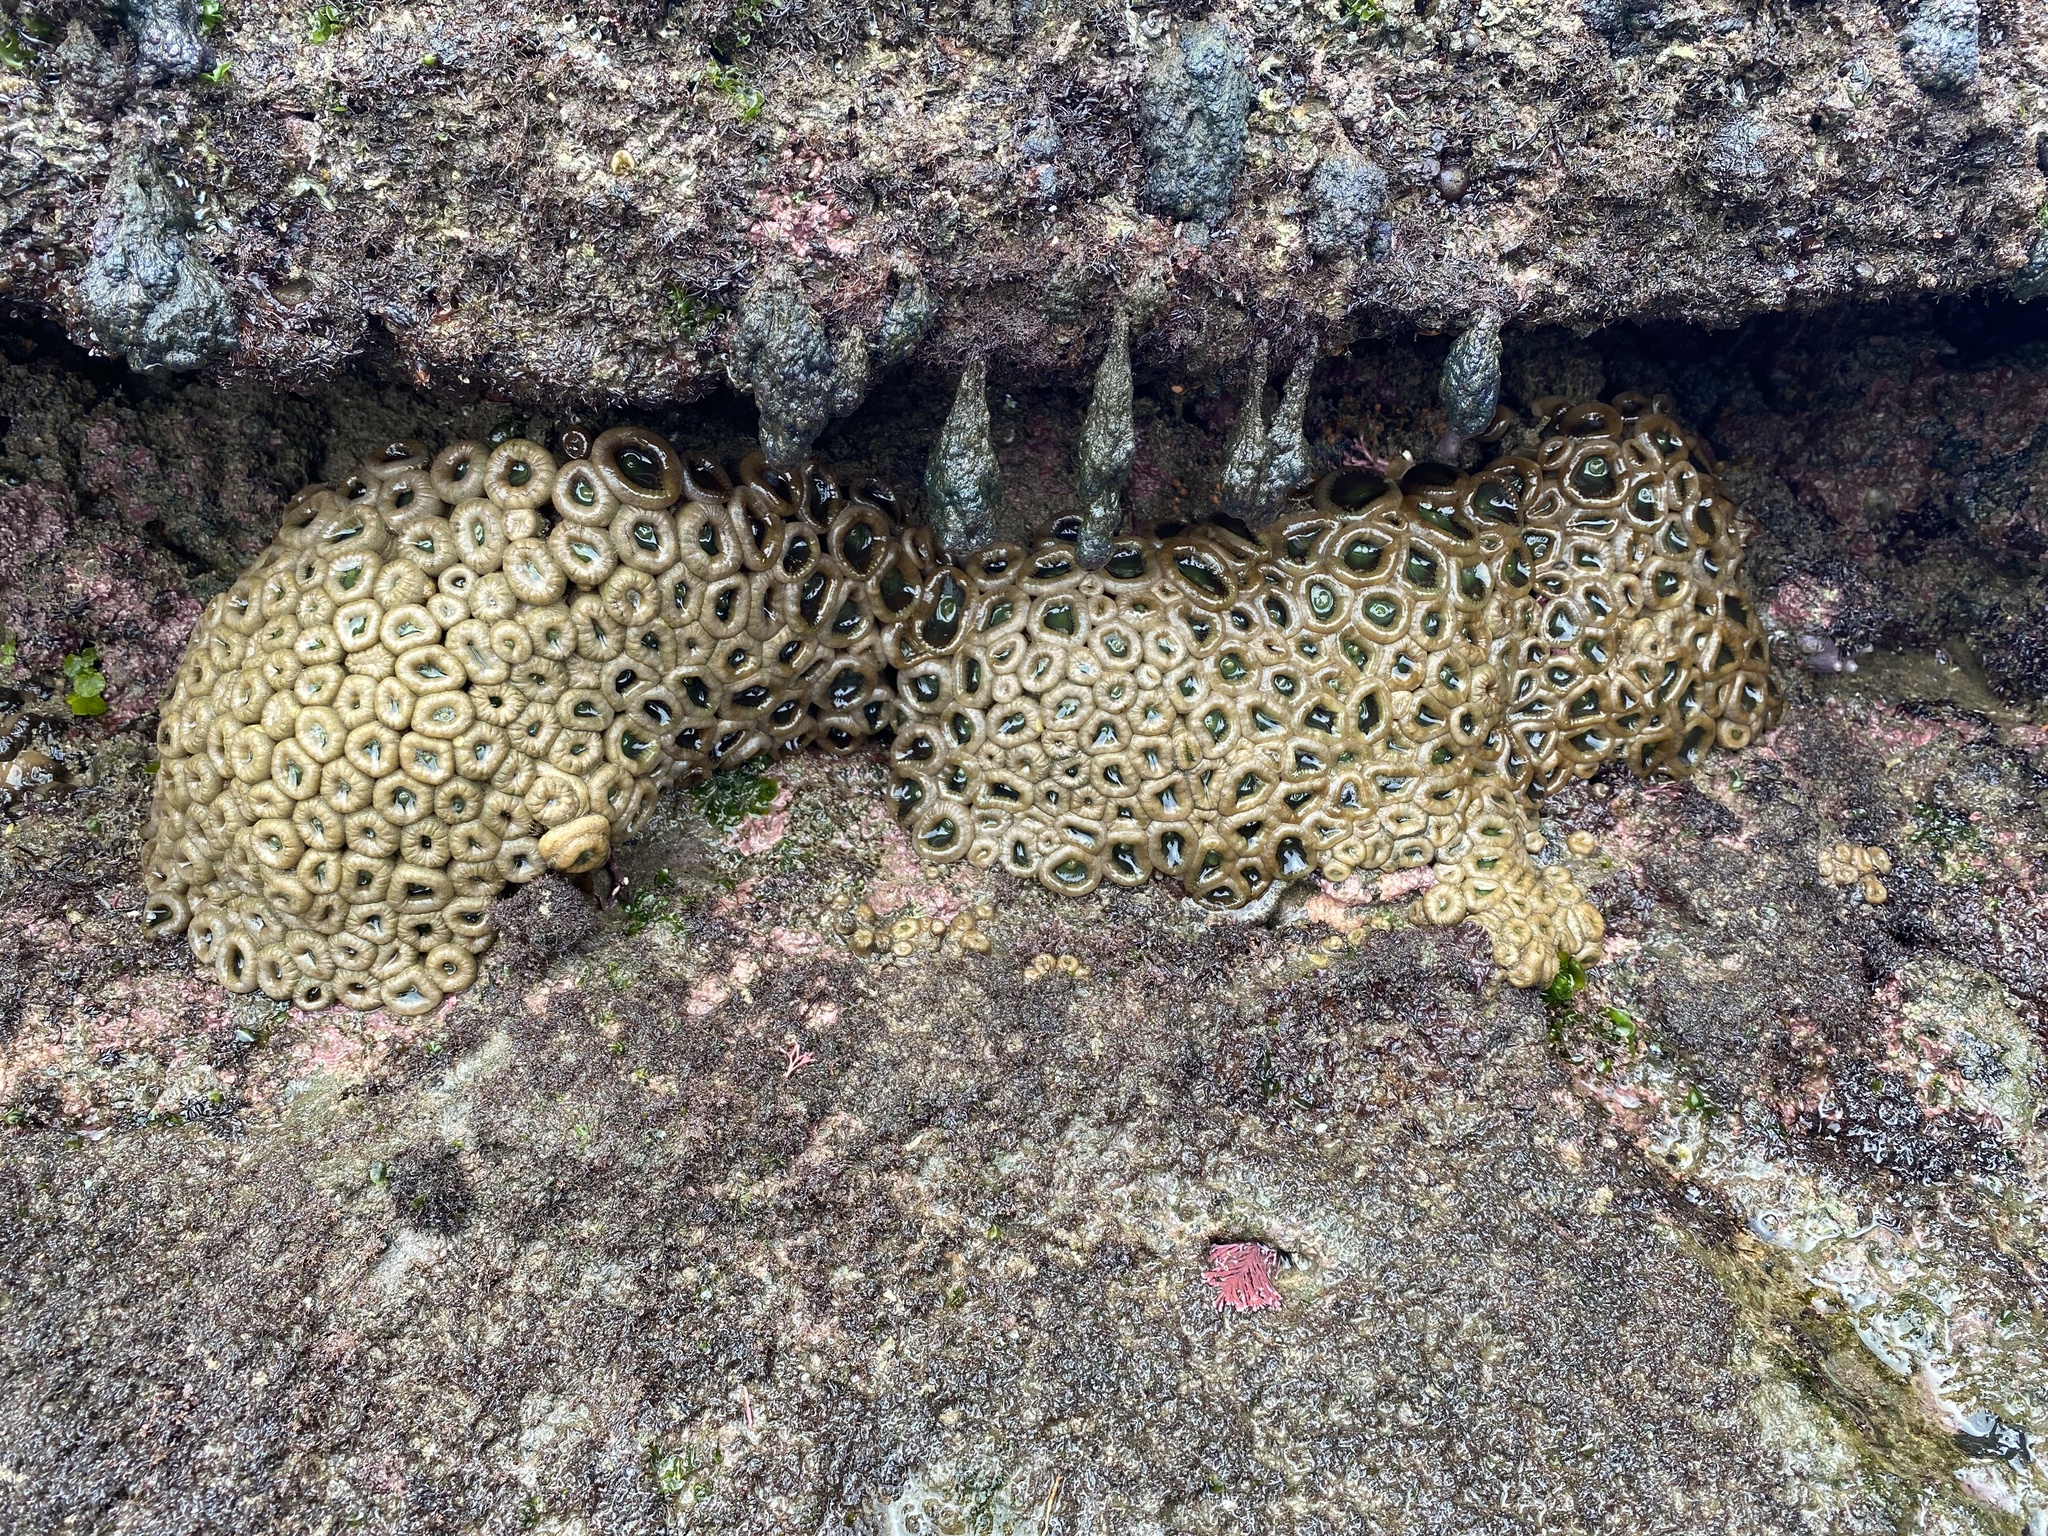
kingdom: Animalia
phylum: Cnidaria
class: Anthozoa
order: Zoantharia
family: Sphenopidae
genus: Palythoa
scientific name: Palythoa mutuki
